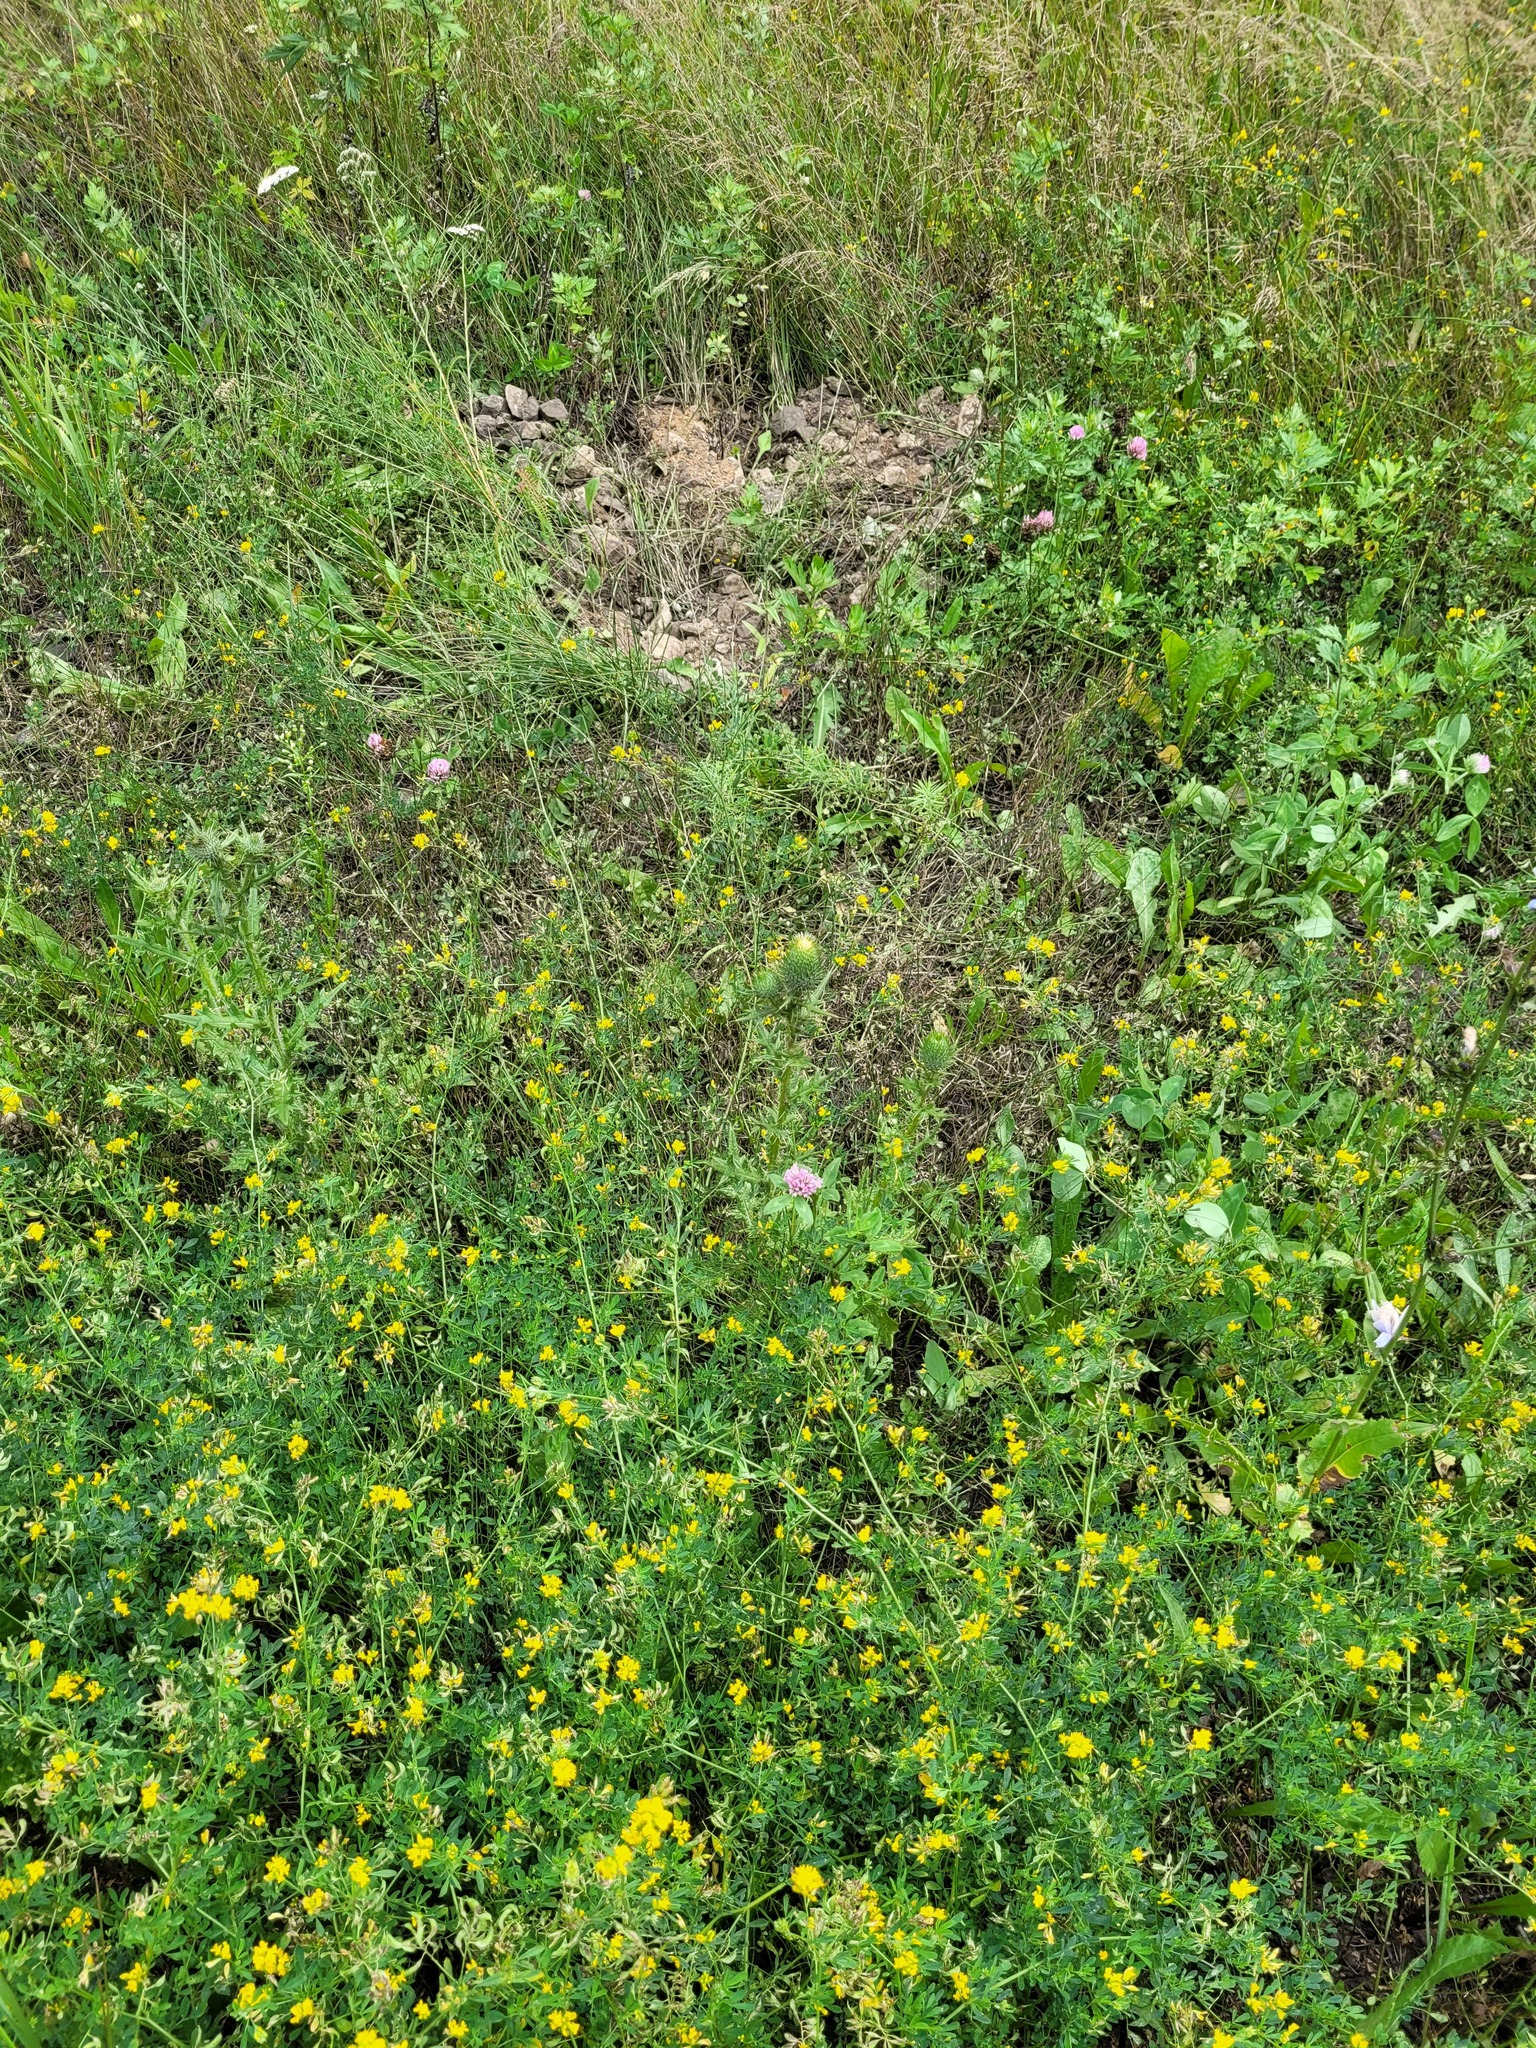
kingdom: Plantae
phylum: Tracheophyta
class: Magnoliopsida
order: Fabales
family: Fabaceae
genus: Medicago
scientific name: Medicago falcata
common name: Sickle medick
